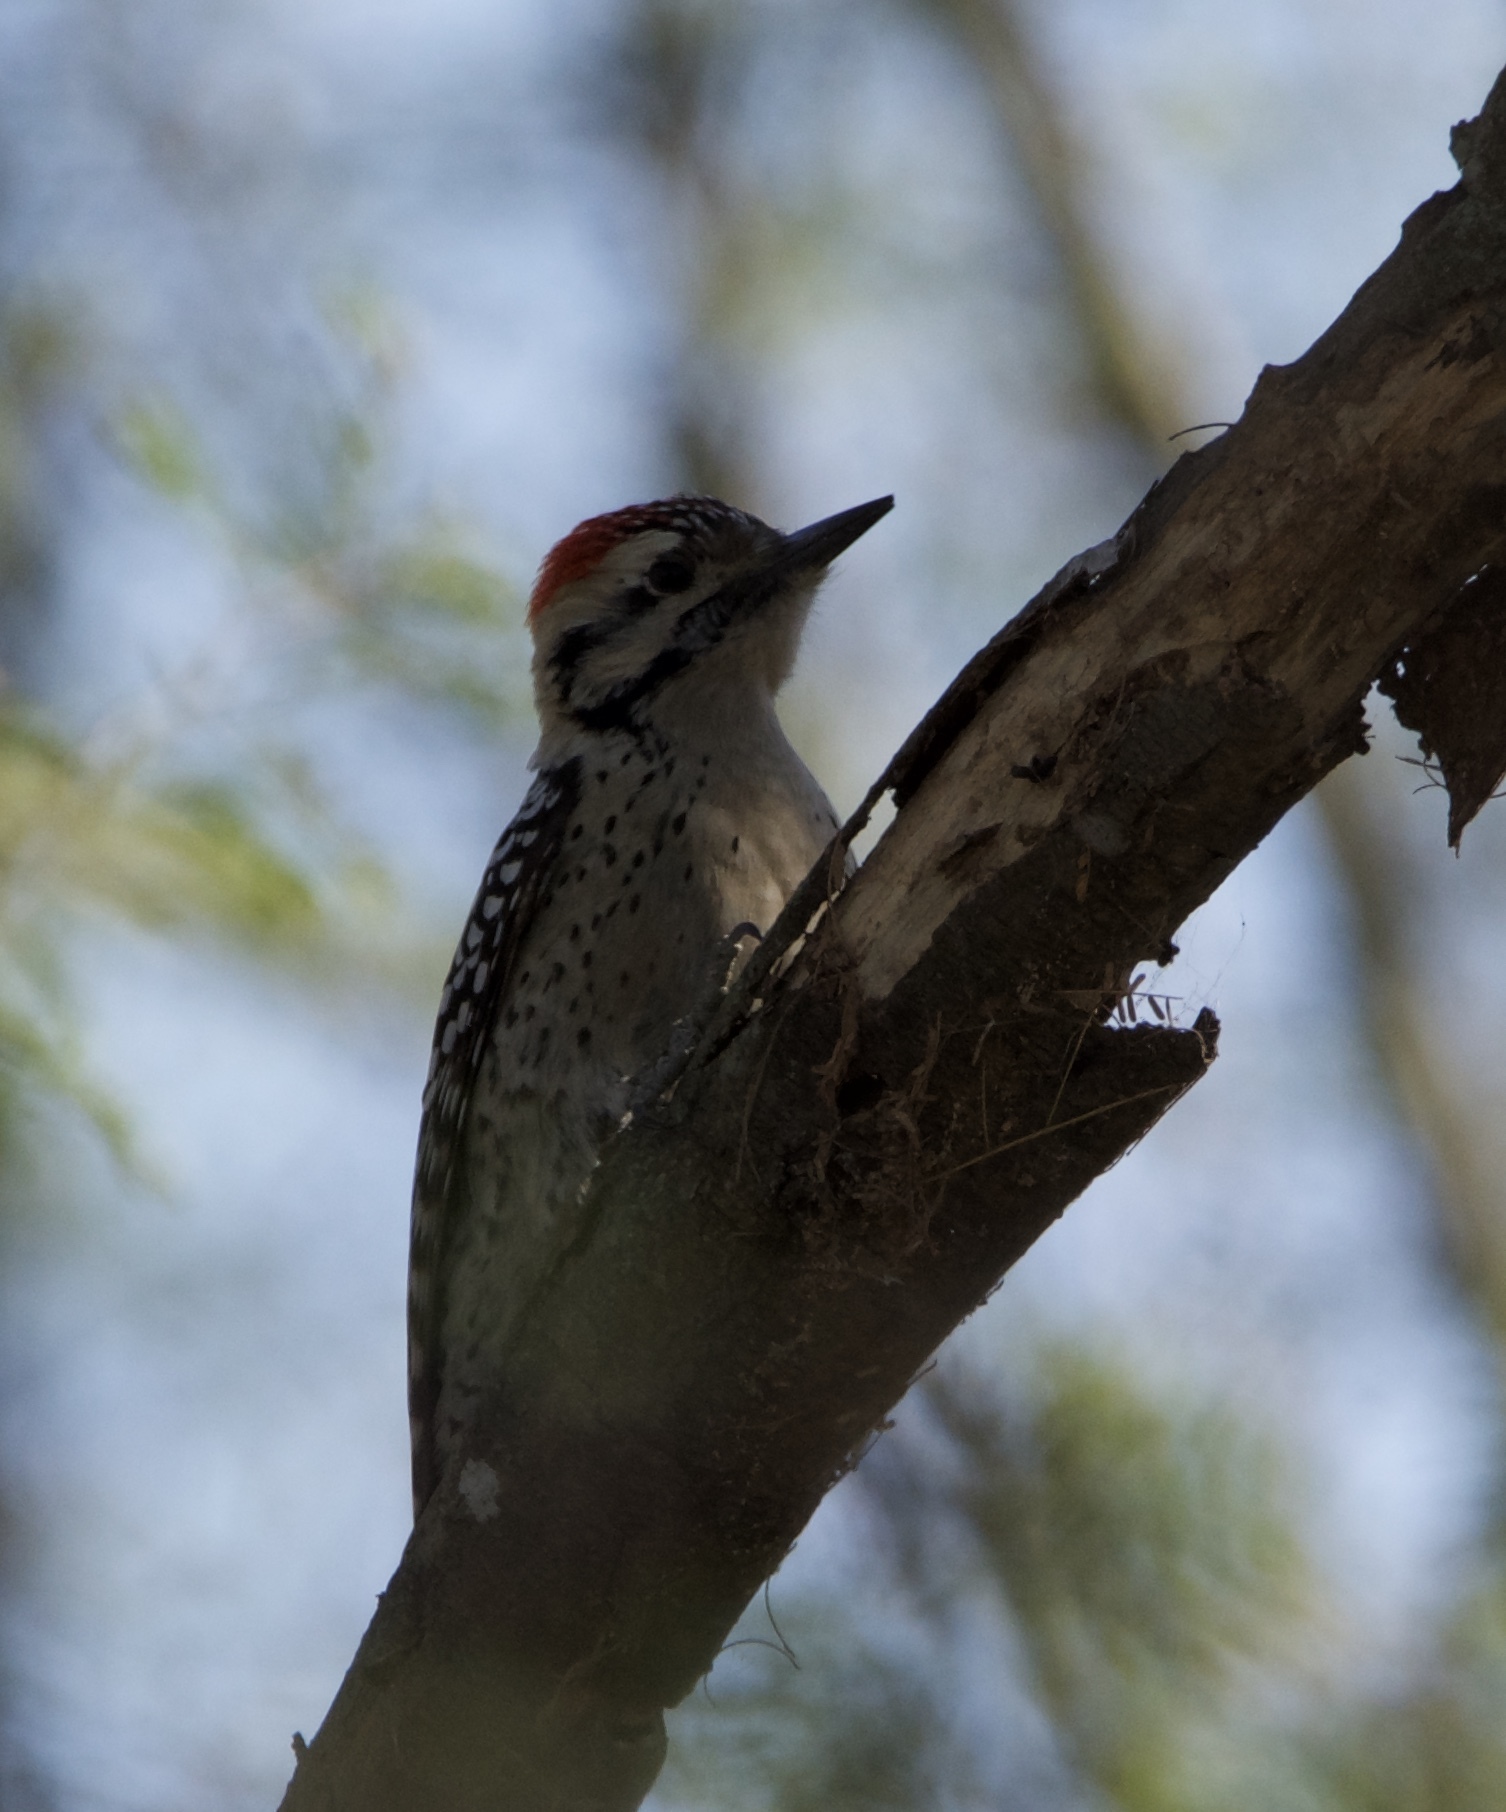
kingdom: Animalia
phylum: Chordata
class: Aves
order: Piciformes
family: Picidae
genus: Dryobates
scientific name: Dryobates scalaris
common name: Ladder-backed woodpecker
